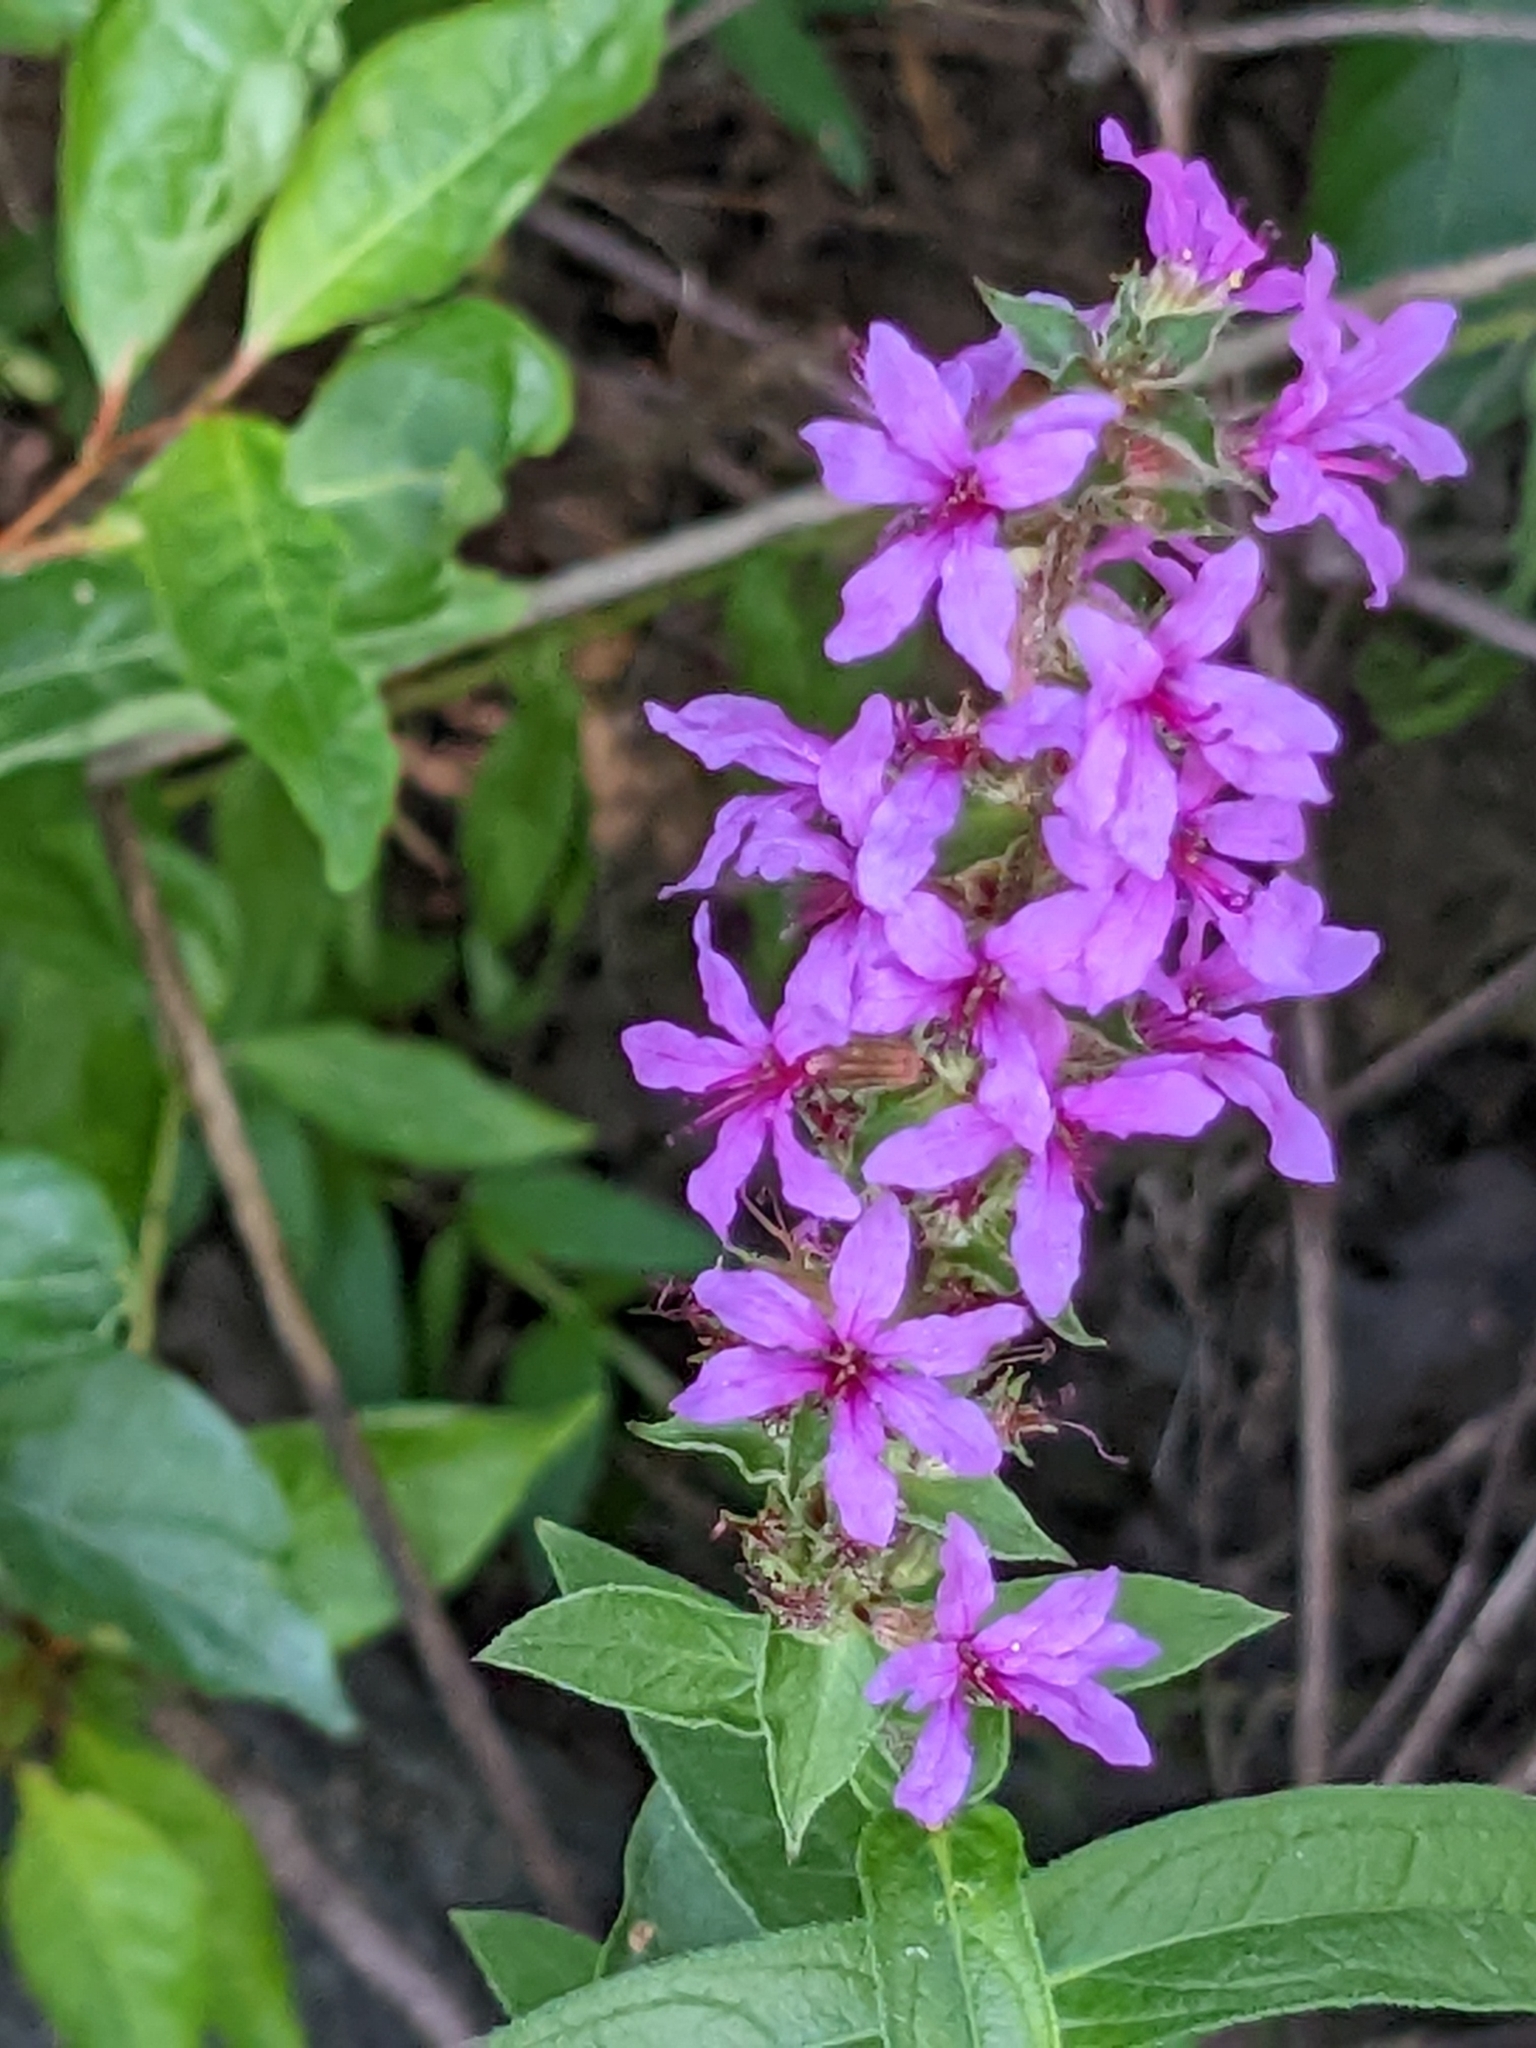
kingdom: Plantae
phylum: Tracheophyta
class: Magnoliopsida
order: Myrtales
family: Lythraceae
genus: Lythrum
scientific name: Lythrum salicaria
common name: Purple loosestrife
